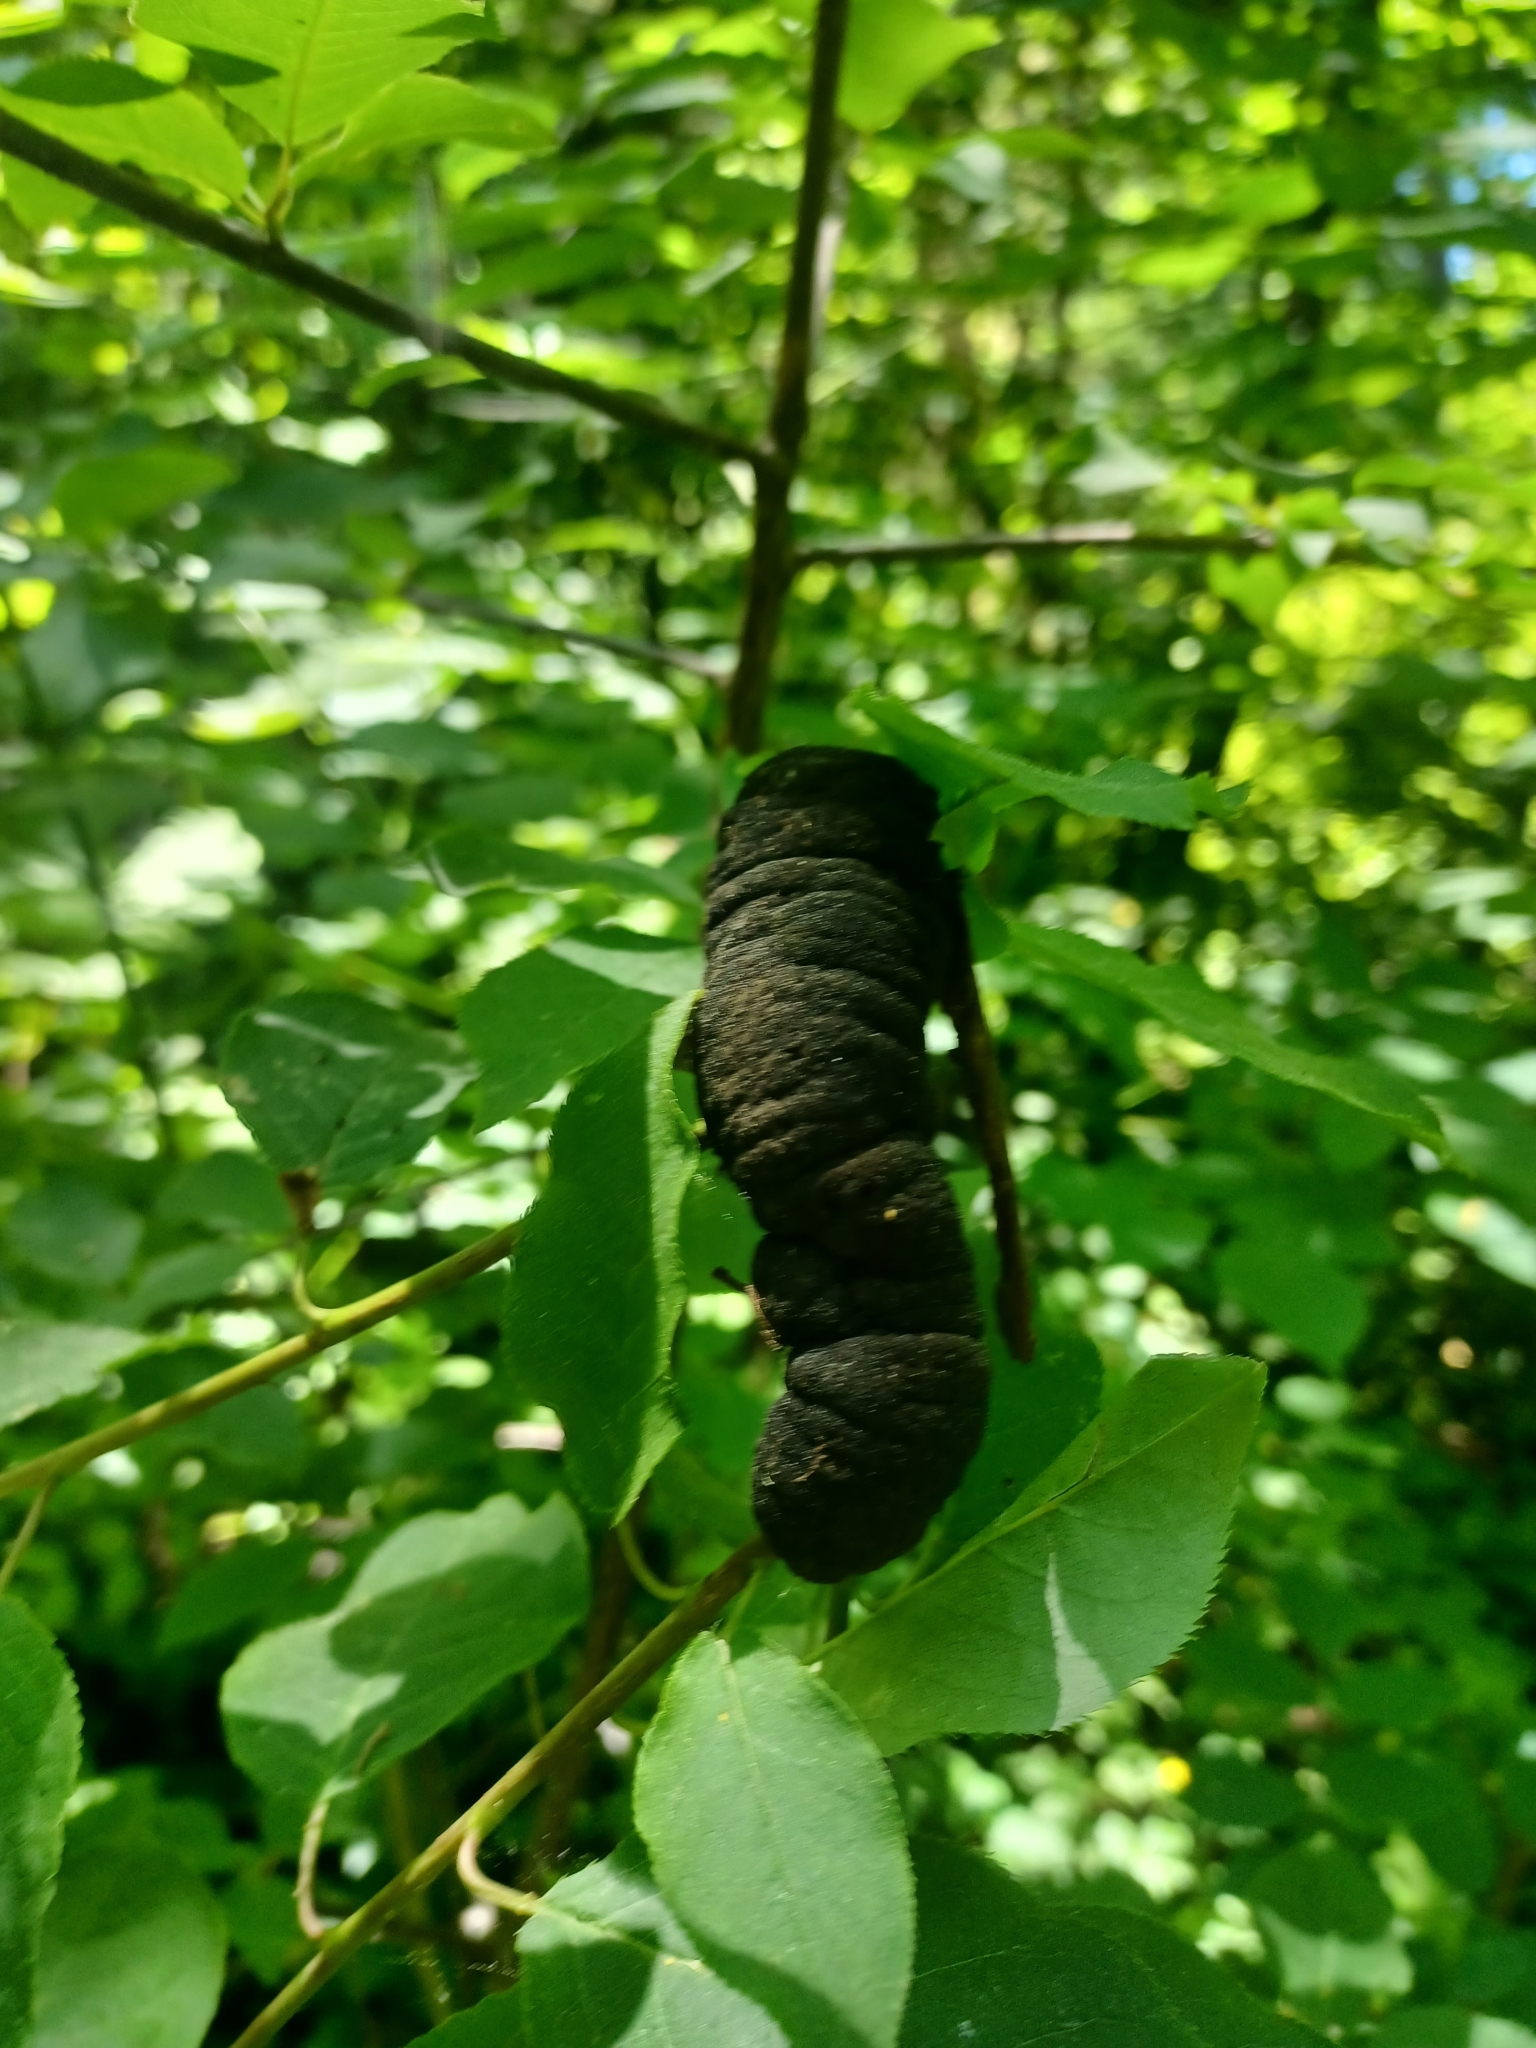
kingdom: Fungi
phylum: Ascomycota
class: Dothideomycetes
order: Venturiales
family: Venturiaceae
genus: Apiosporina
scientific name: Apiosporina morbosa
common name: Black knot
